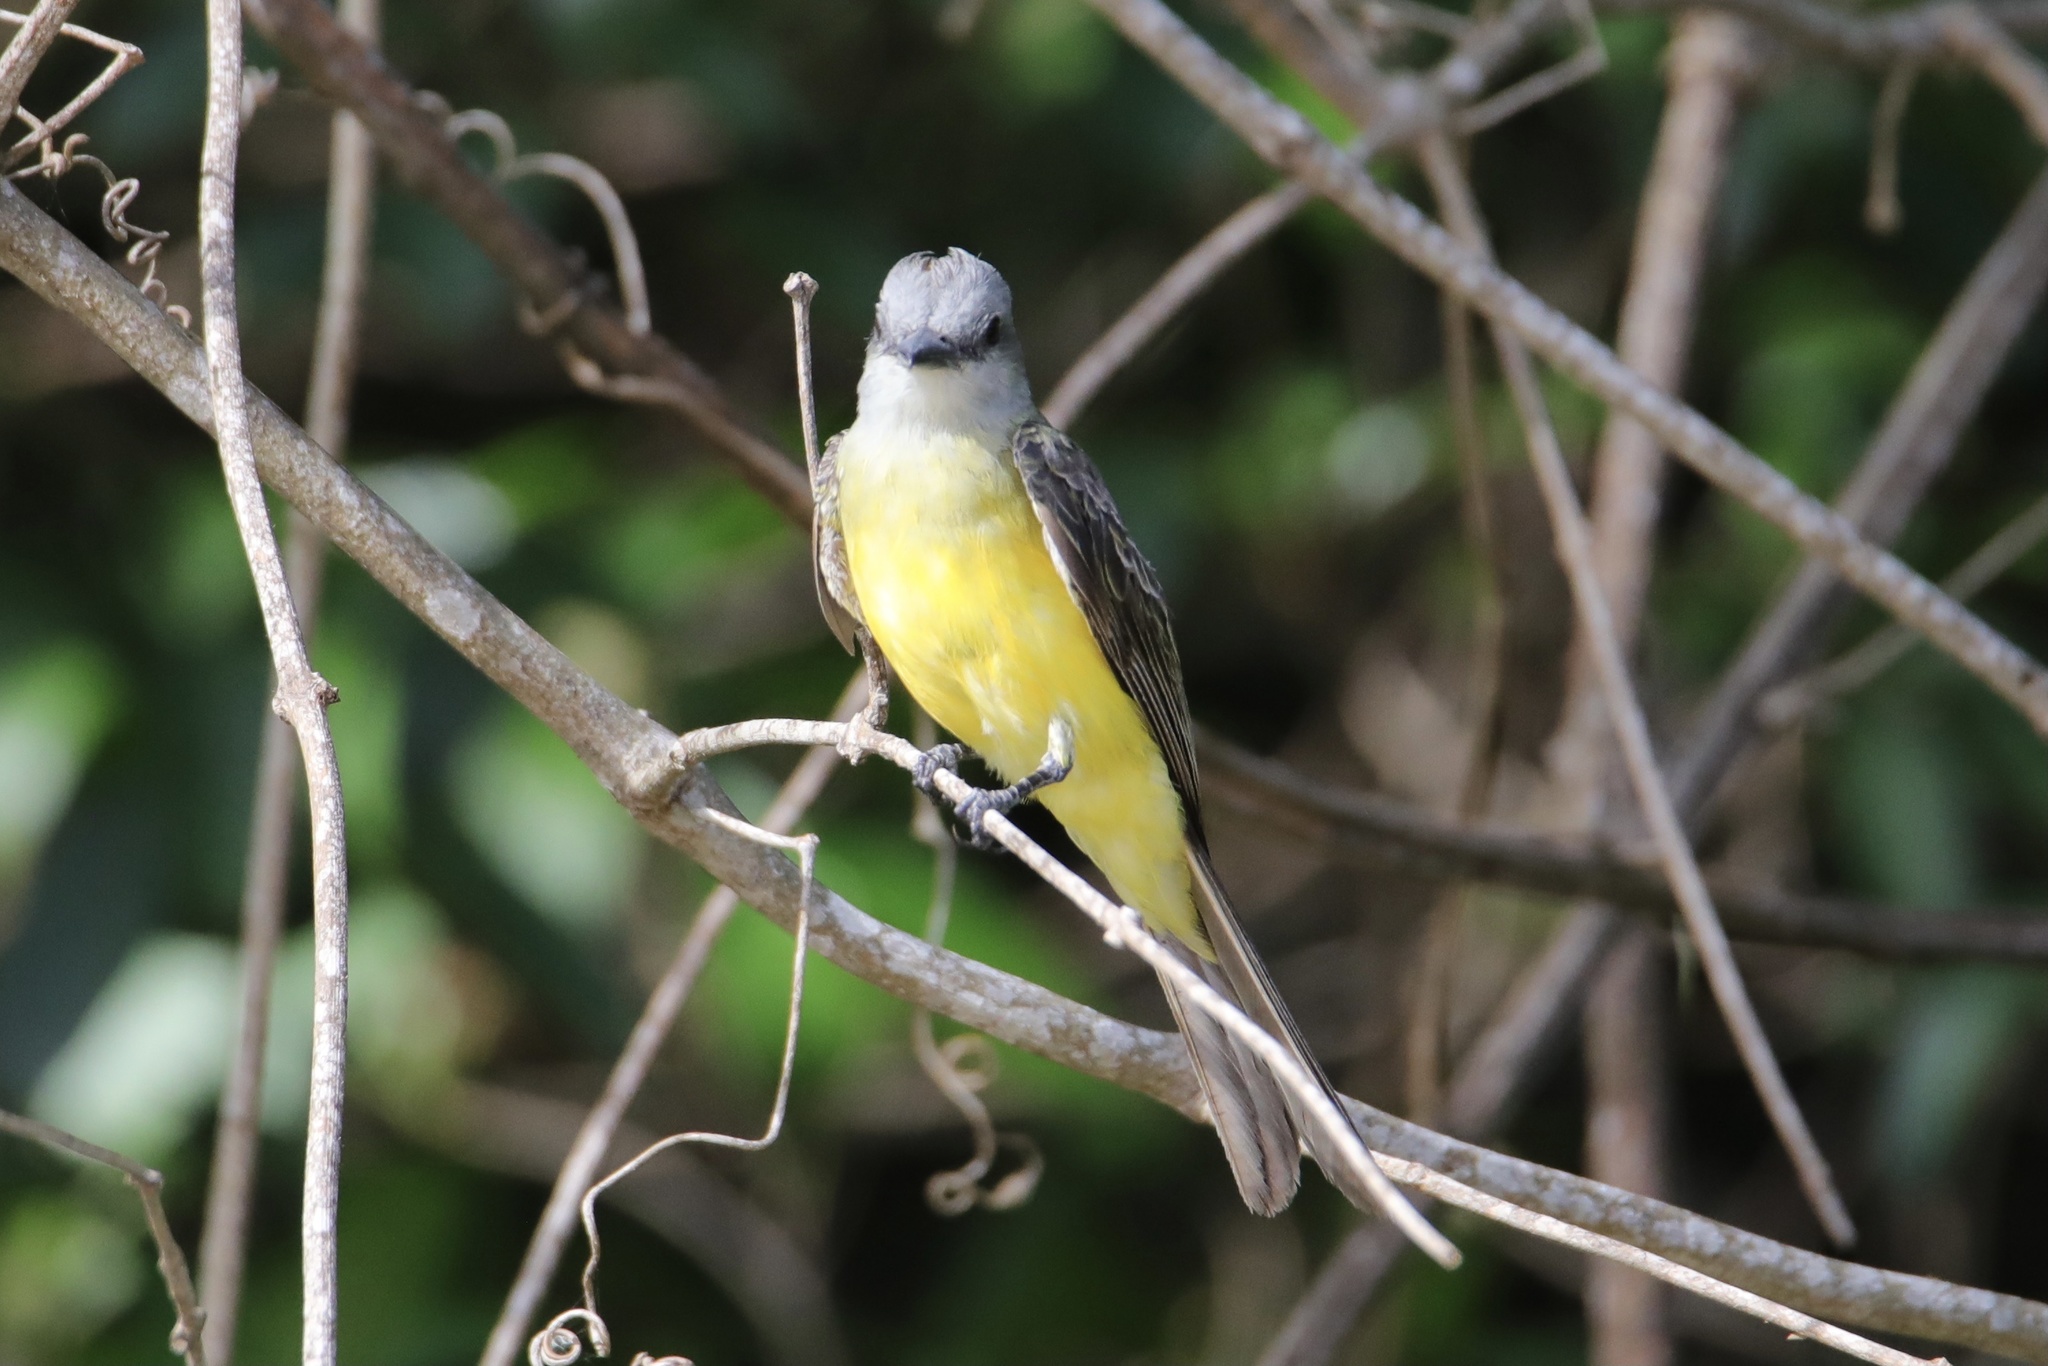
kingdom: Animalia
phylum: Chordata
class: Aves
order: Passeriformes
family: Tyrannidae
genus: Tyrannus
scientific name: Tyrannus melancholicus
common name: Tropical kingbird
